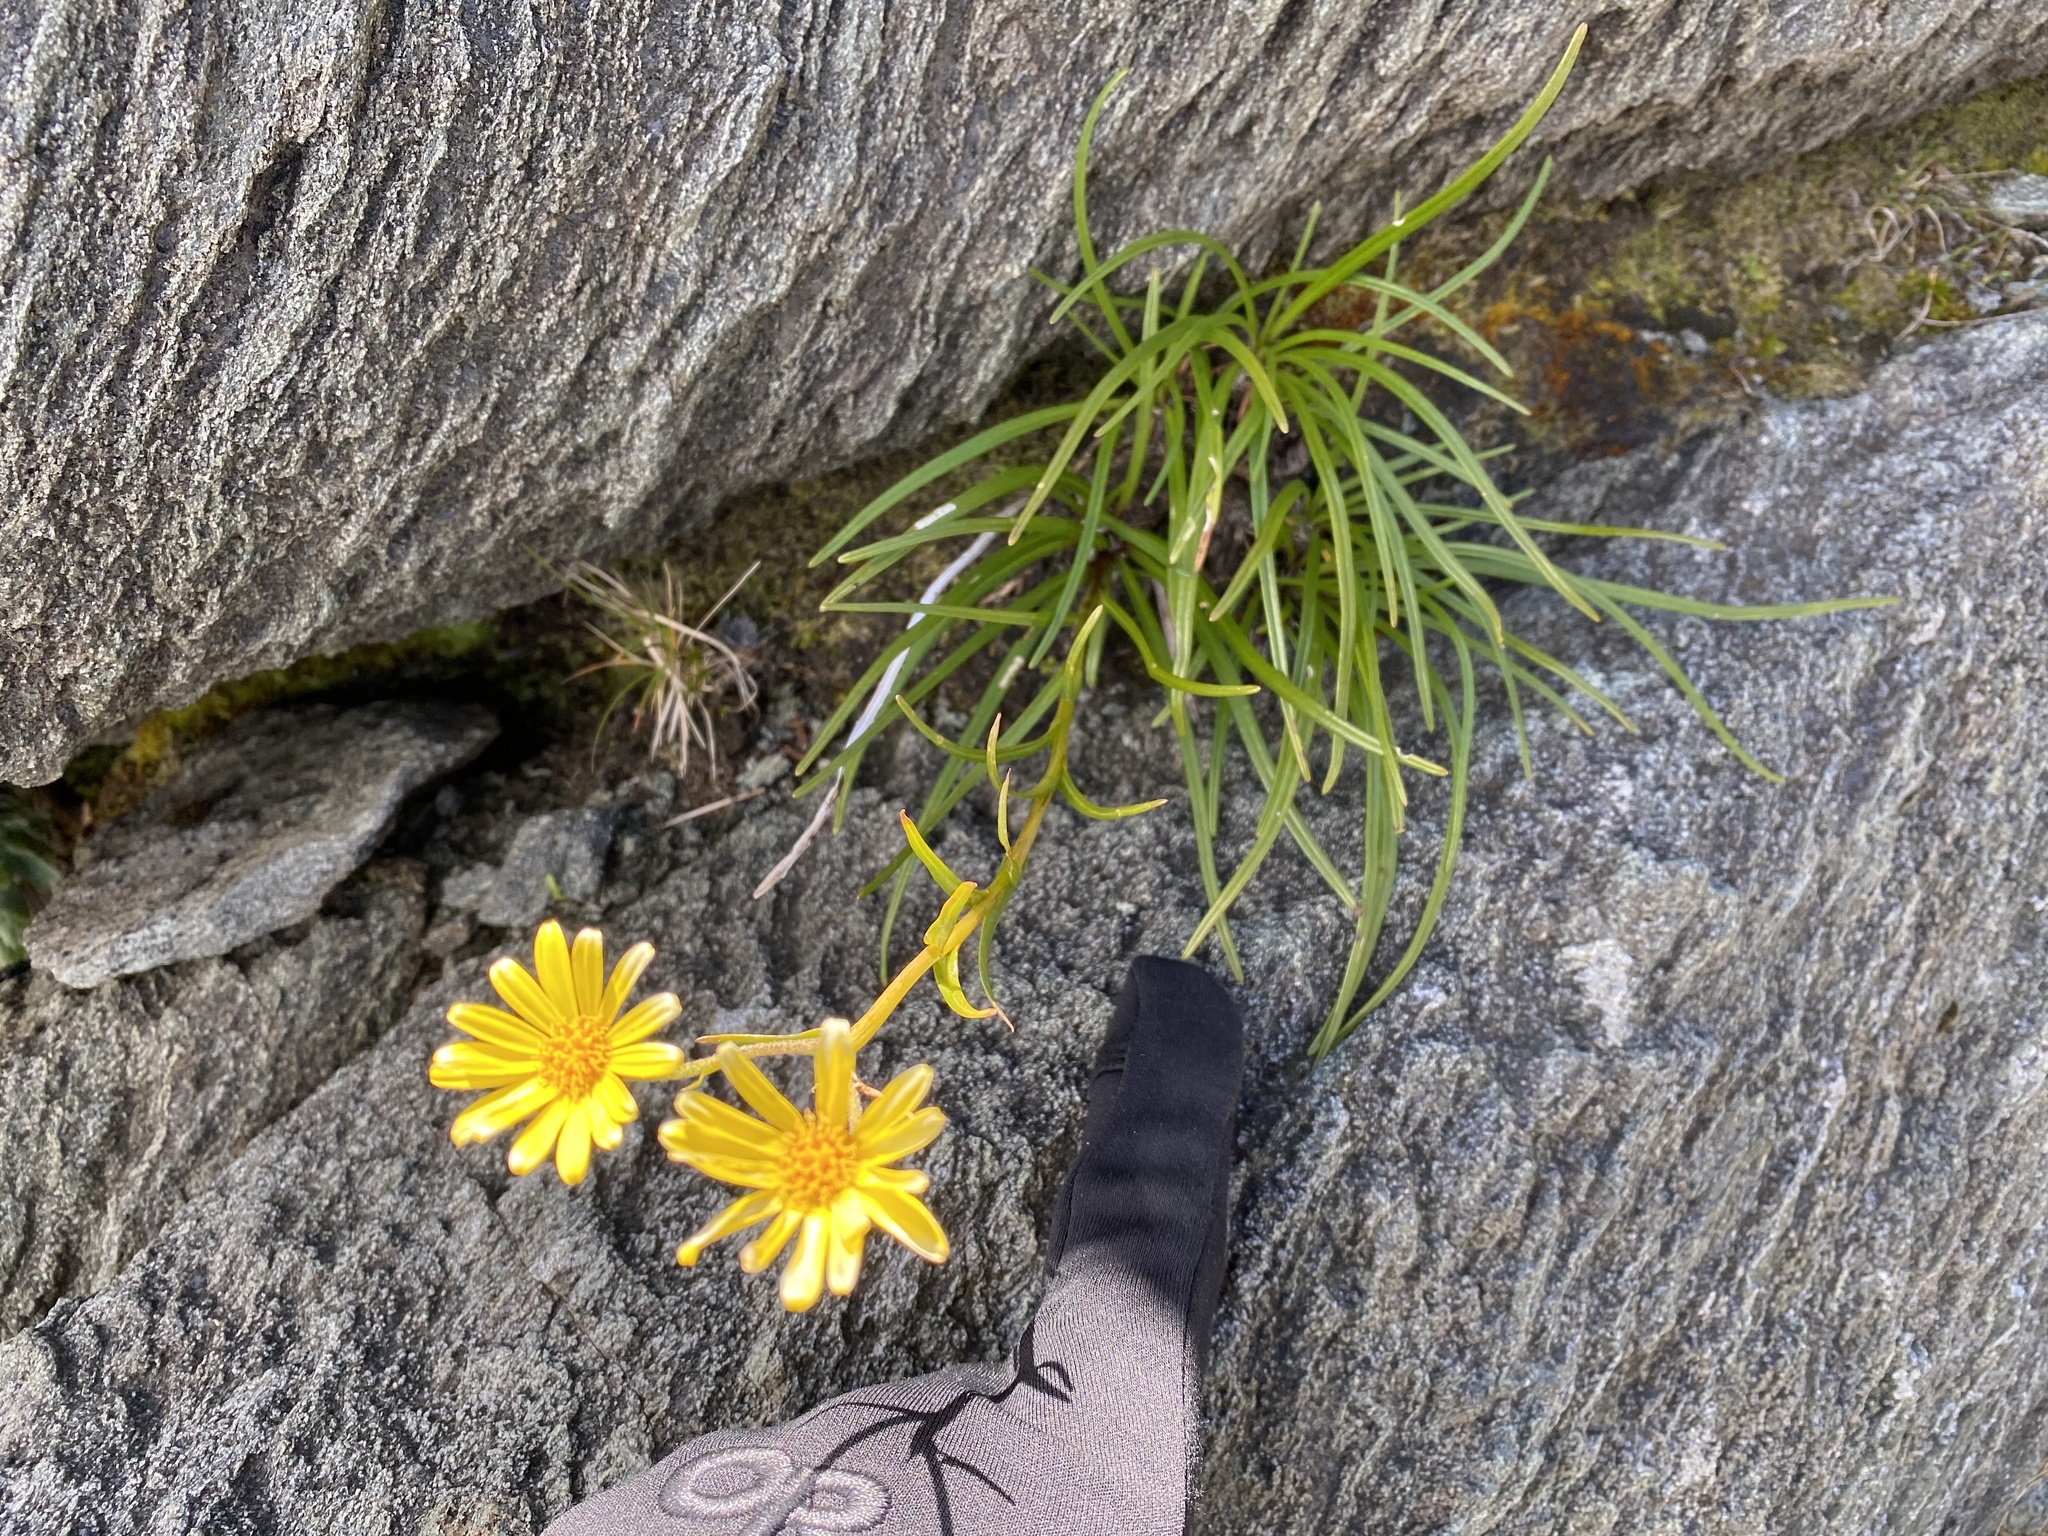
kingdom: Plantae
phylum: Tracheophyta
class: Magnoliopsida
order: Asterales
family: Asteraceae
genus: Dolichoglottis
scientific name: Dolichoglottis lyallii
